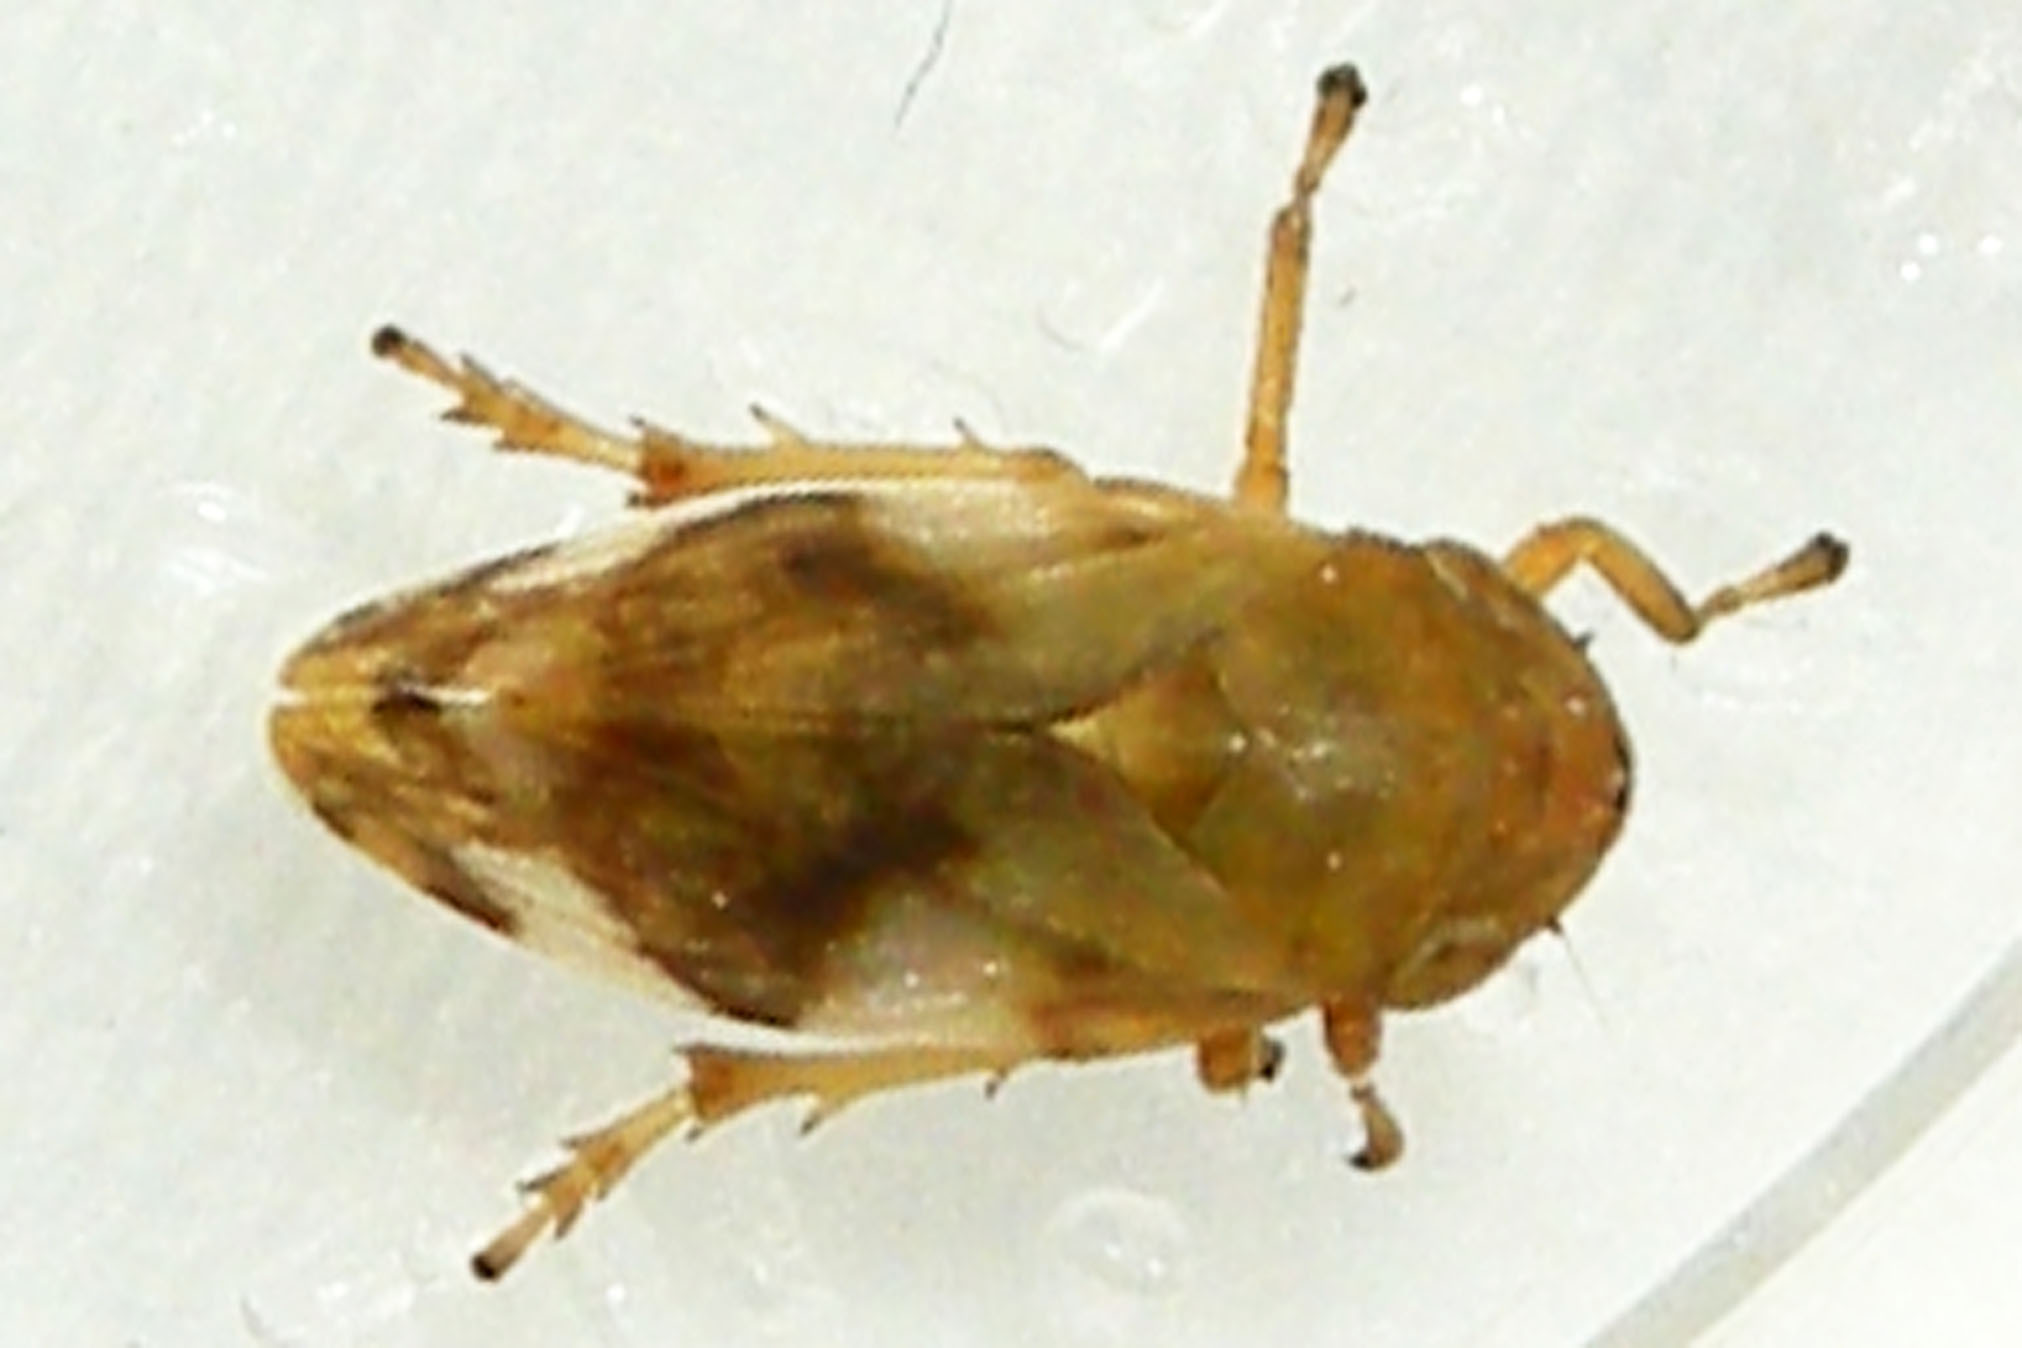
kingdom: Animalia
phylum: Arthropoda
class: Insecta
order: Hemiptera
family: Aphrophoridae
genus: Philaenus
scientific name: Philaenus spumarius
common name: Meadow spittlebug
